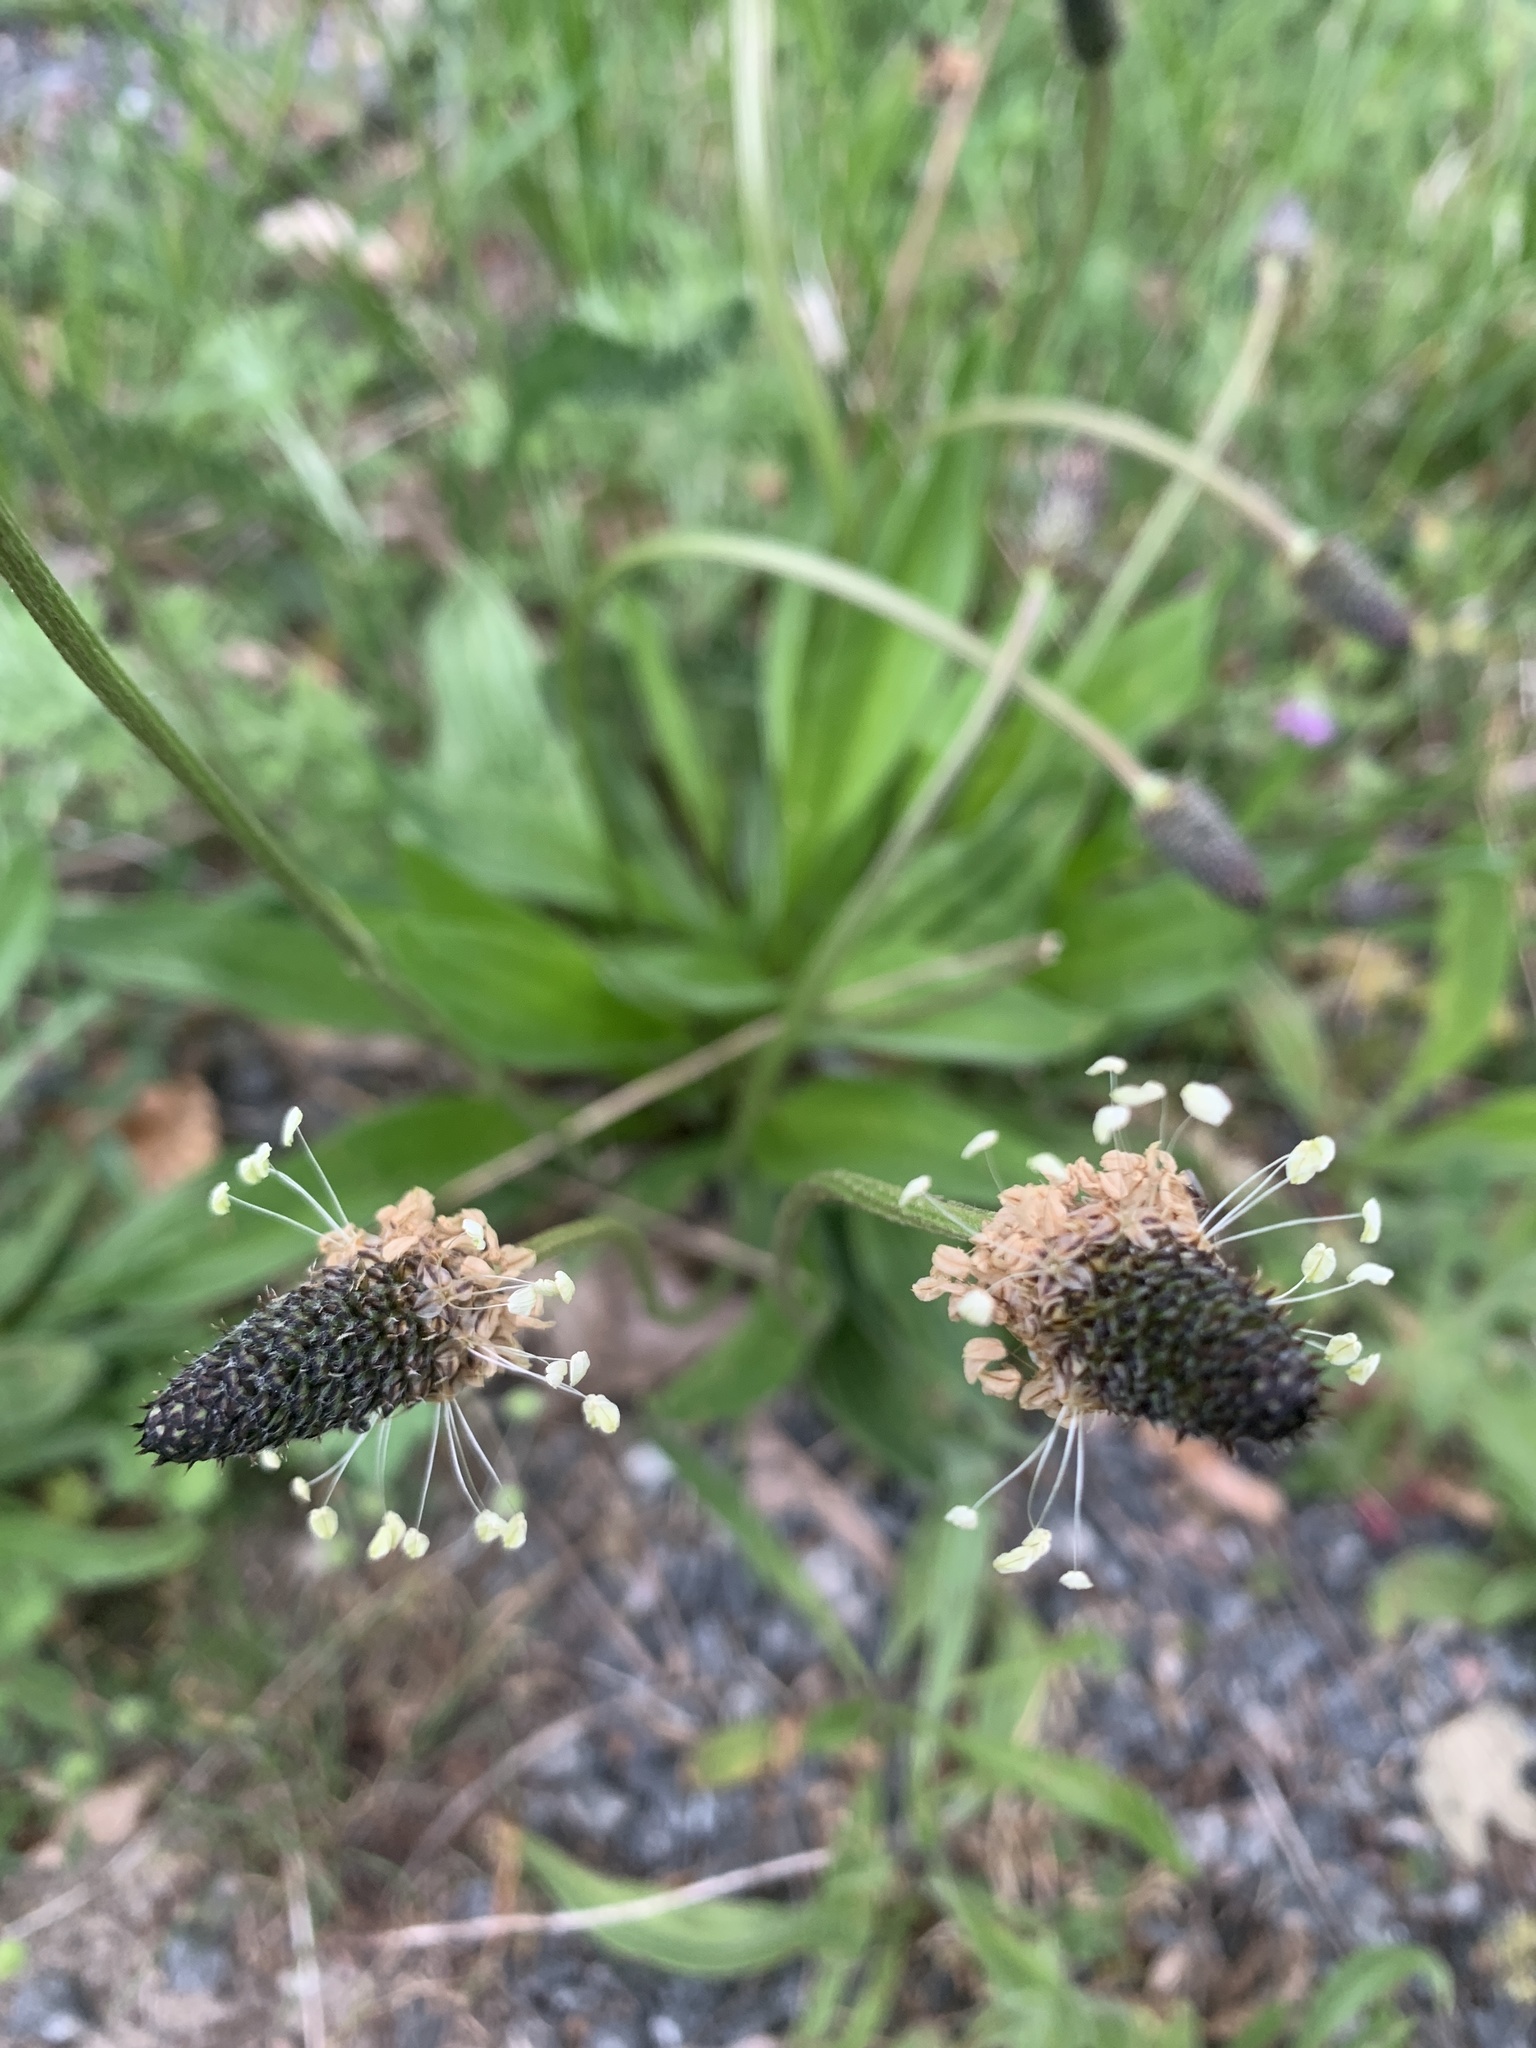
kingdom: Plantae
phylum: Tracheophyta
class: Magnoliopsida
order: Lamiales
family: Plantaginaceae
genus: Plantago
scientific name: Plantago lanceolata
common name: Ribwort plantain
